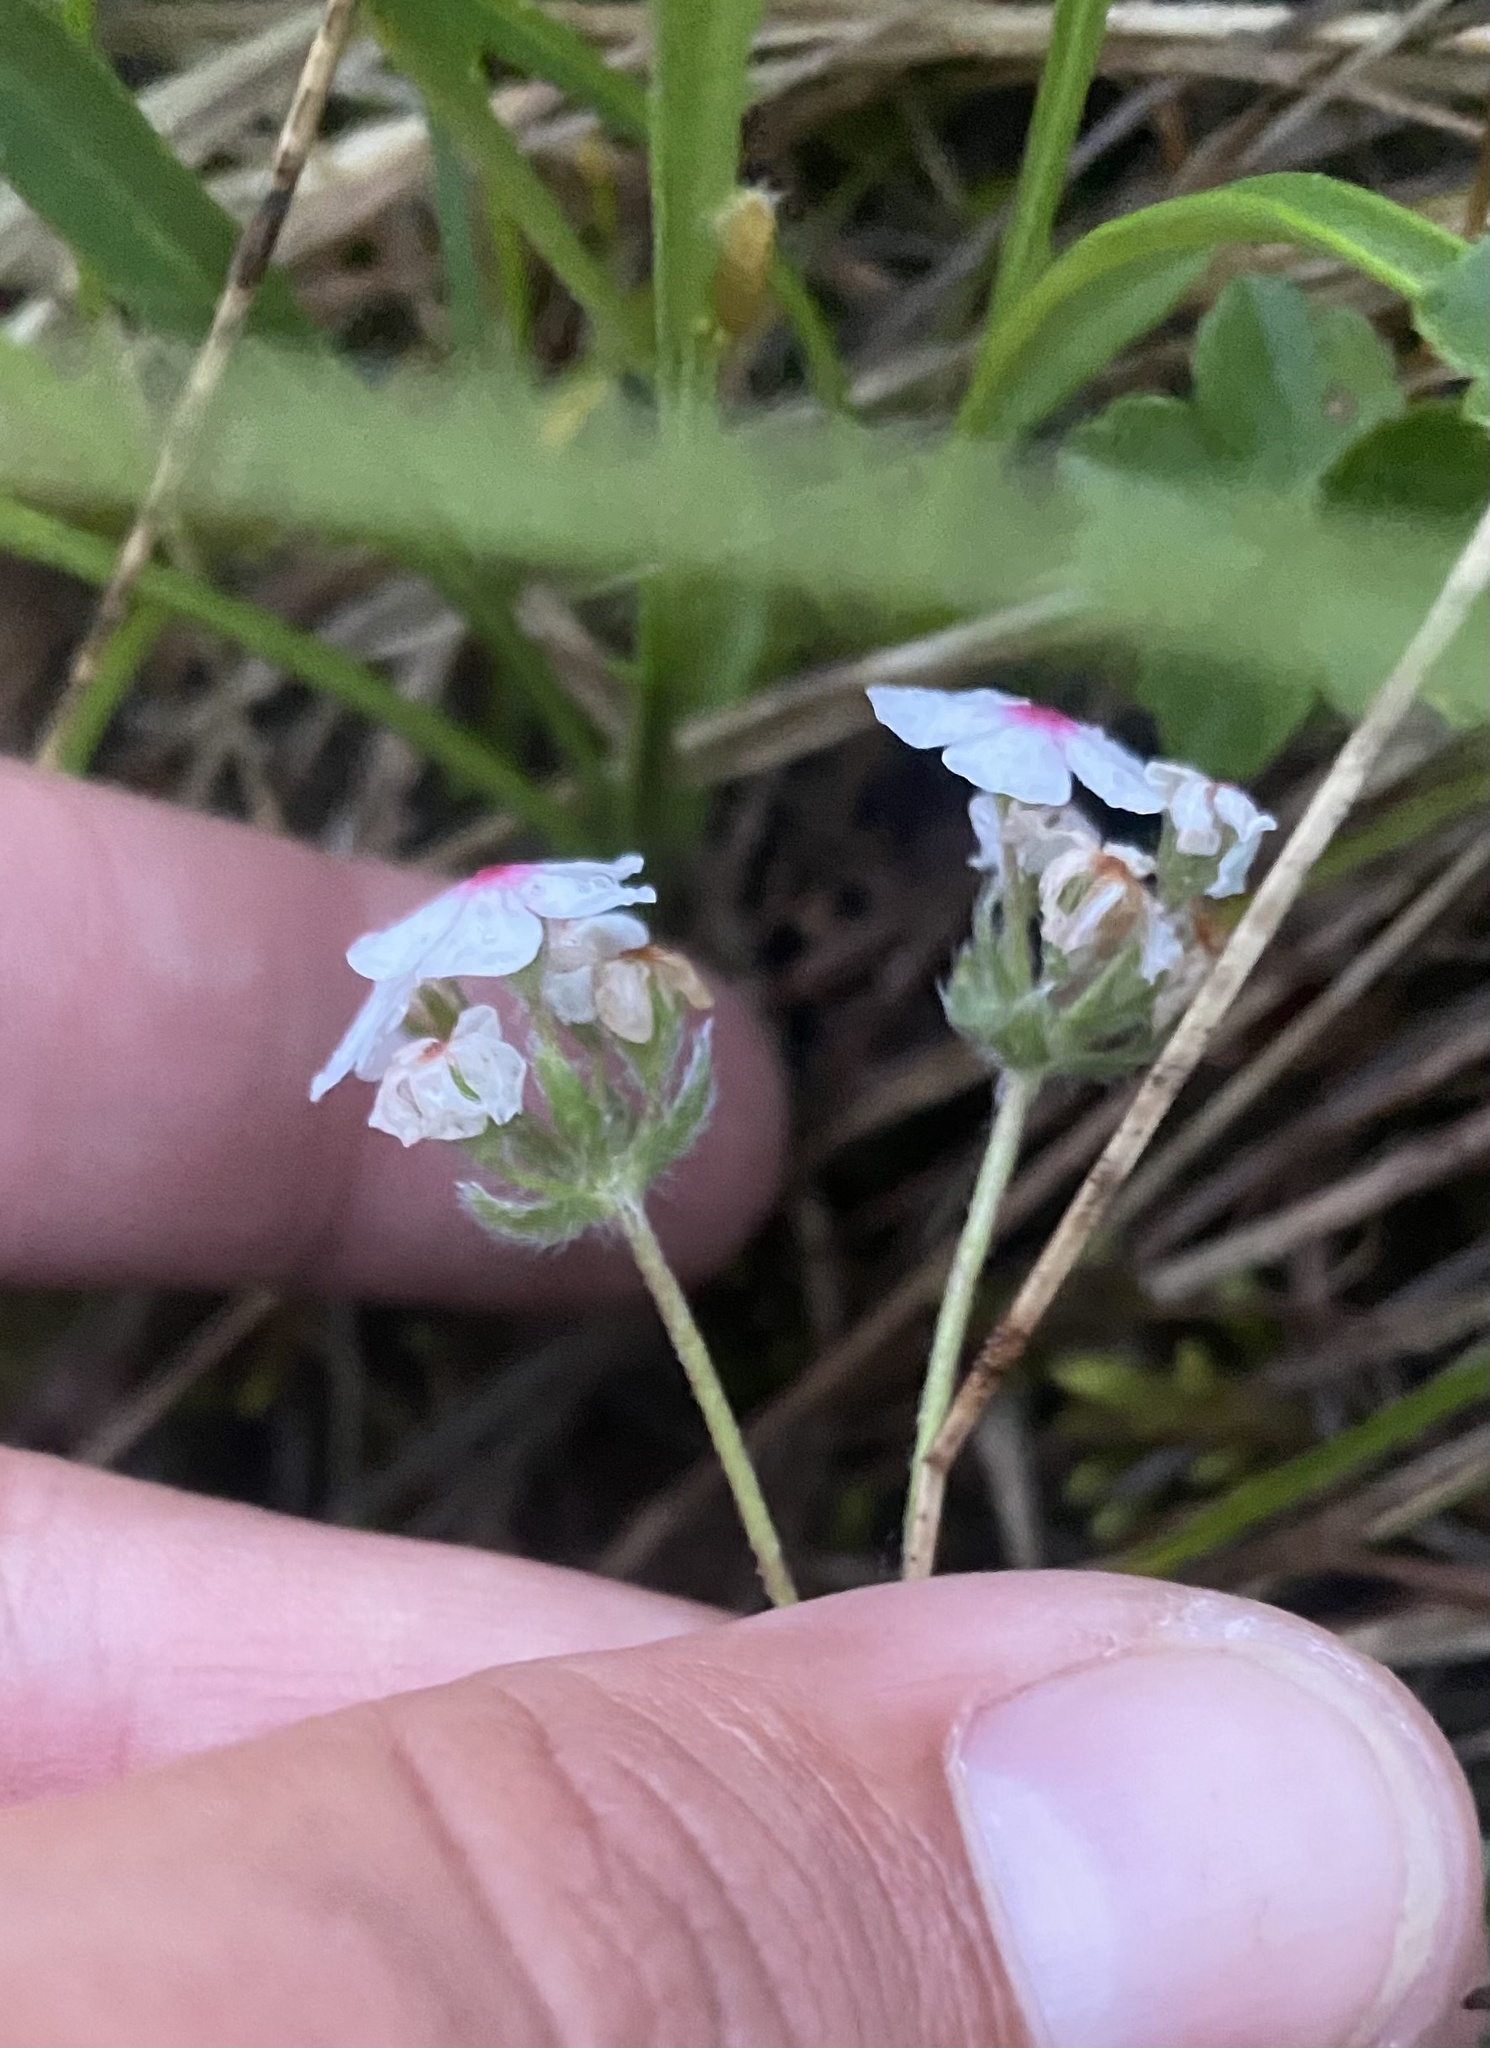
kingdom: Plantae
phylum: Tracheophyta
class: Magnoliopsida
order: Ericales
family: Primulaceae
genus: Androsace
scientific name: Androsace villosa
